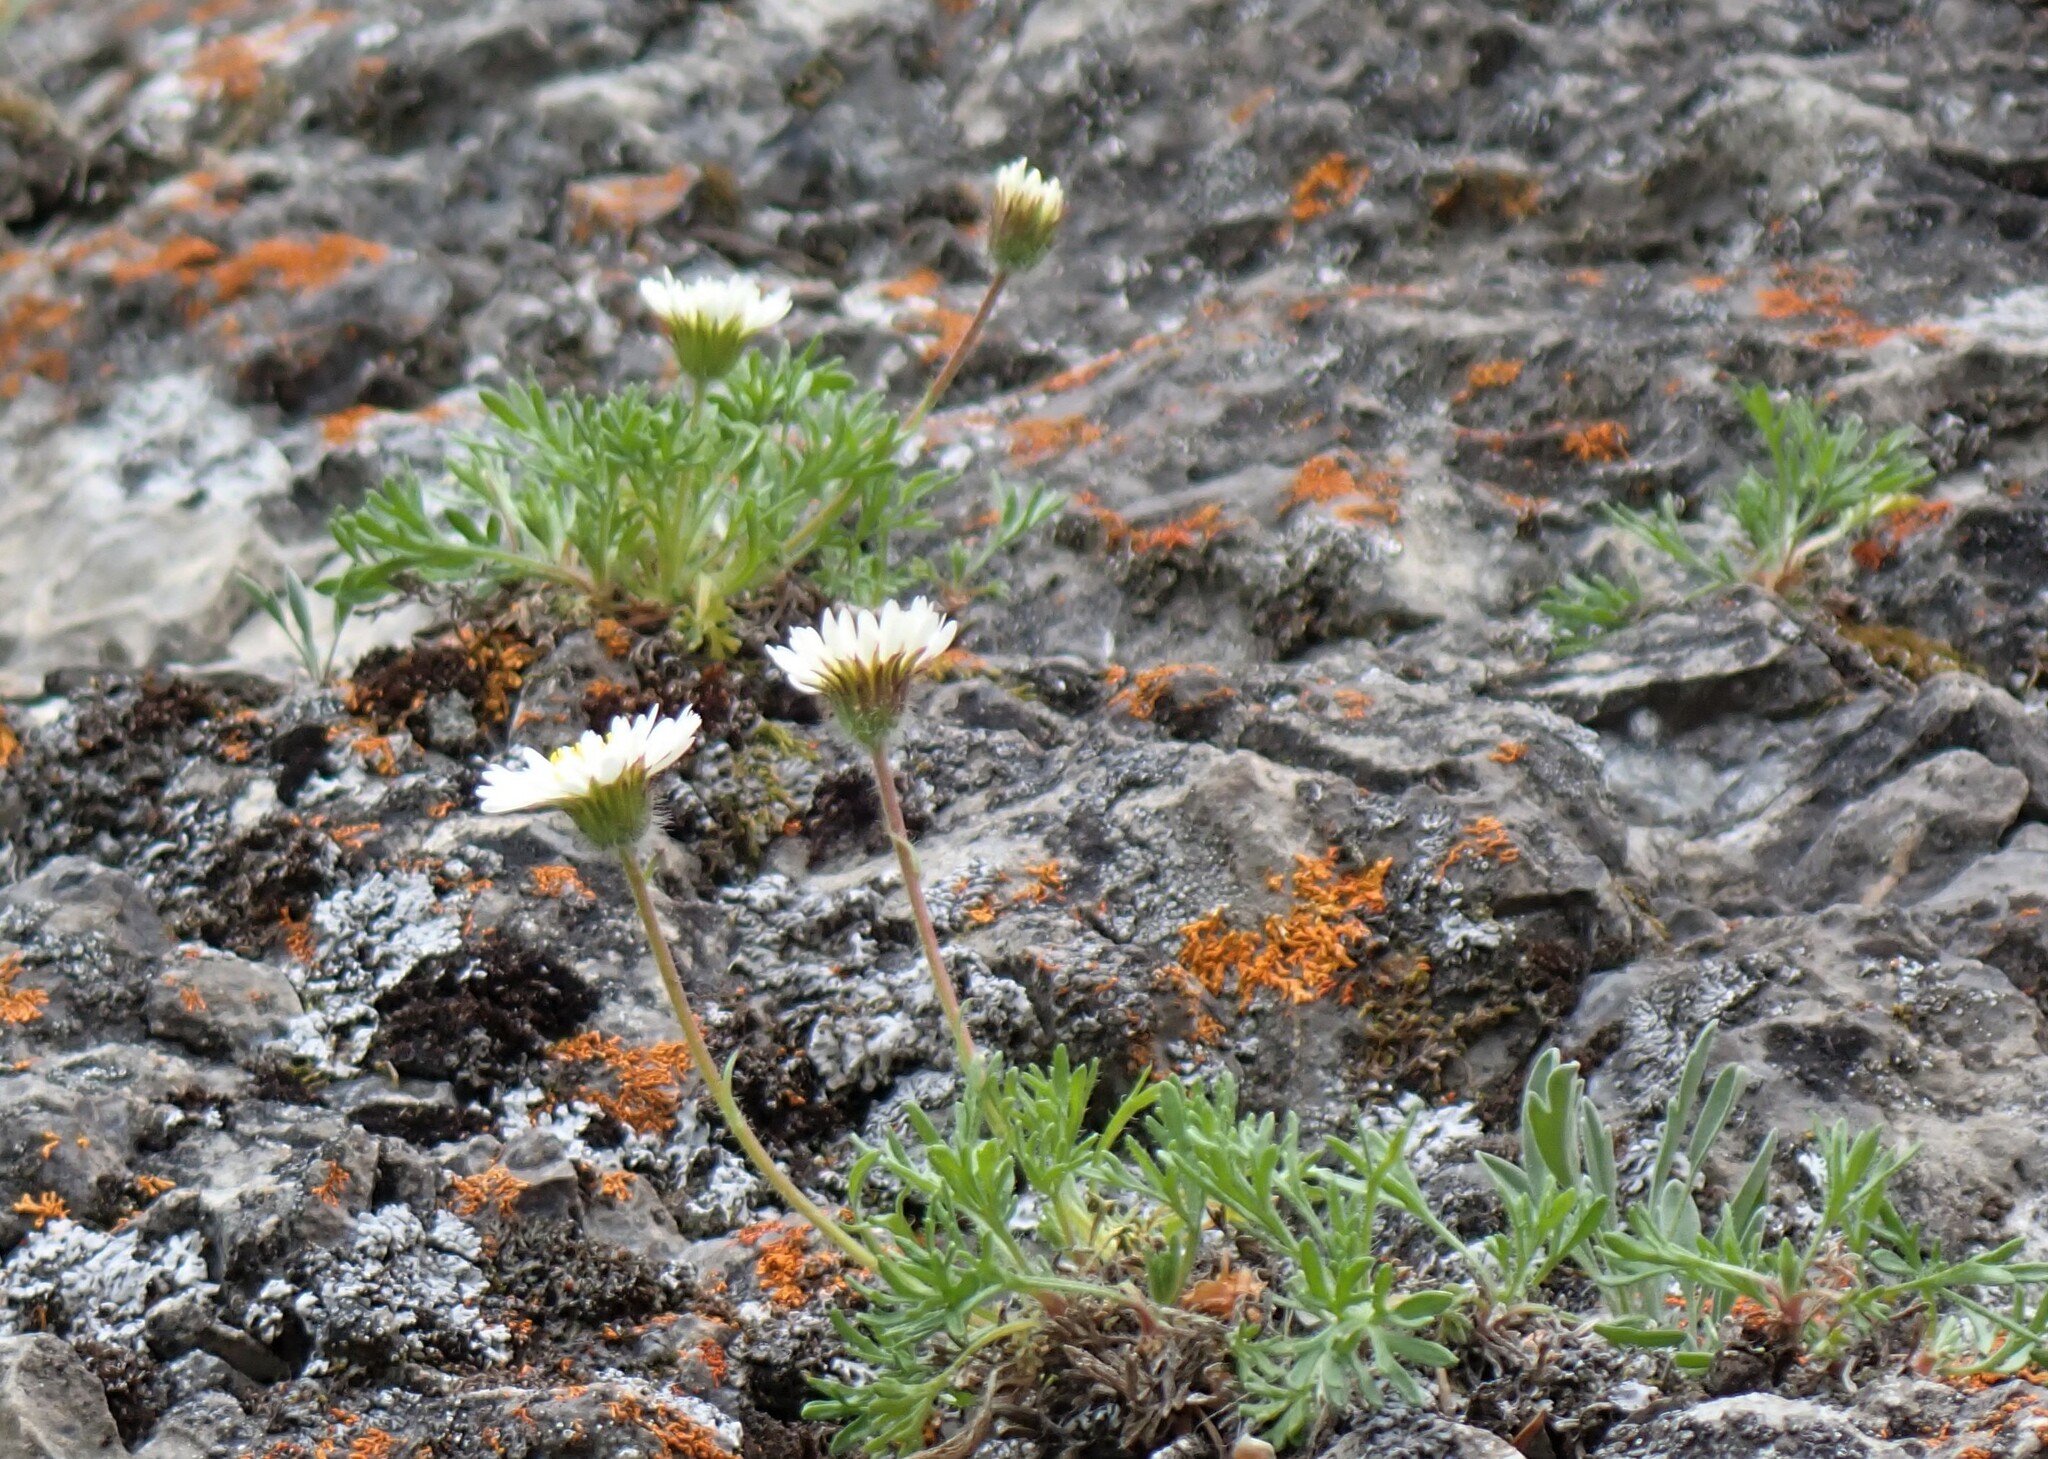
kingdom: Plantae
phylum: Tracheophyta
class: Magnoliopsida
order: Asterales
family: Asteraceae
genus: Erigeron
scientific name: Erigeron compositus
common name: Dwarf mountain fleabane
